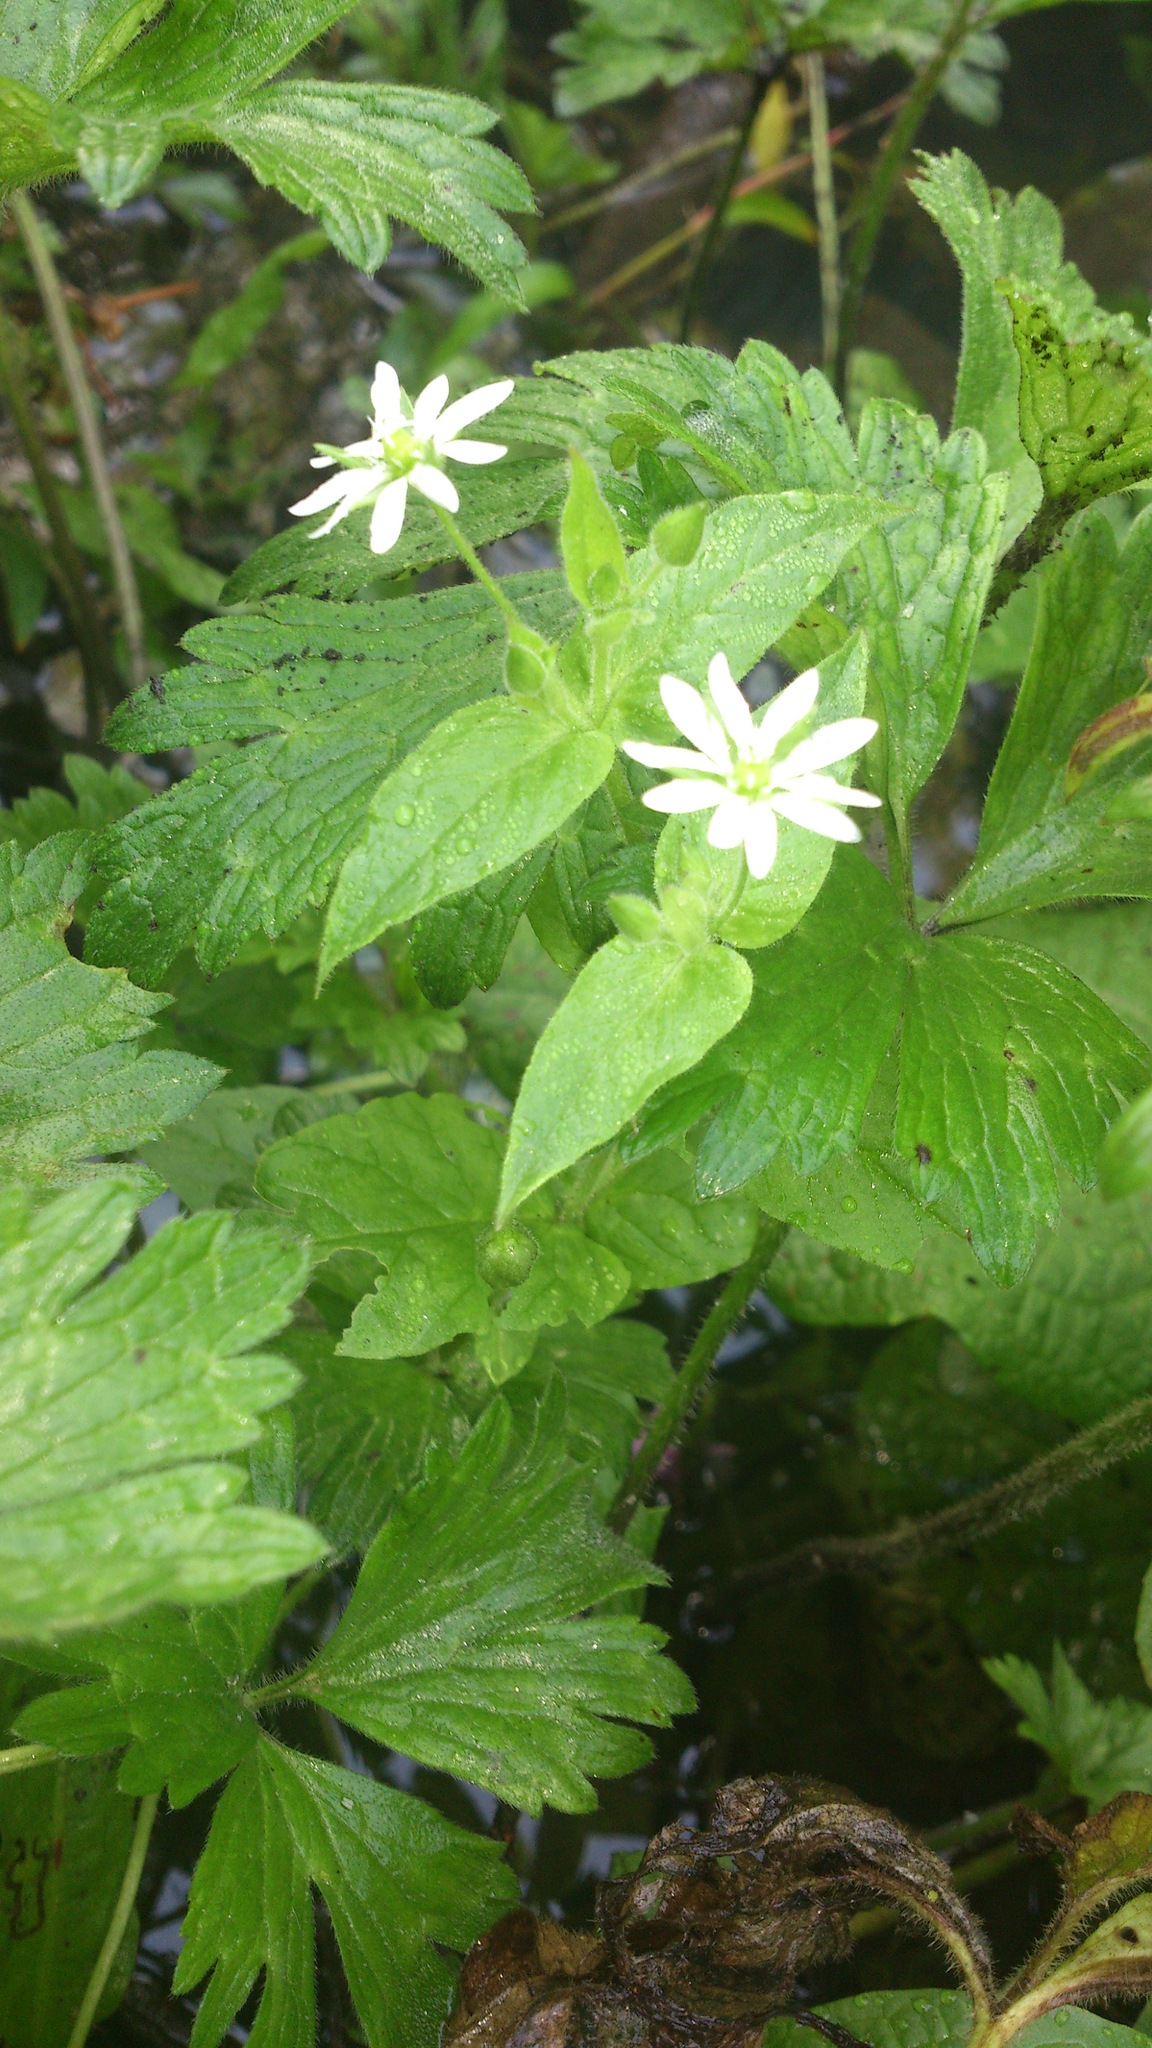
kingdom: Plantae
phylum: Tracheophyta
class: Magnoliopsida
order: Caryophyllales
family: Caryophyllaceae
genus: Stellaria
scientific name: Stellaria aquatica
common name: Water chickweed
